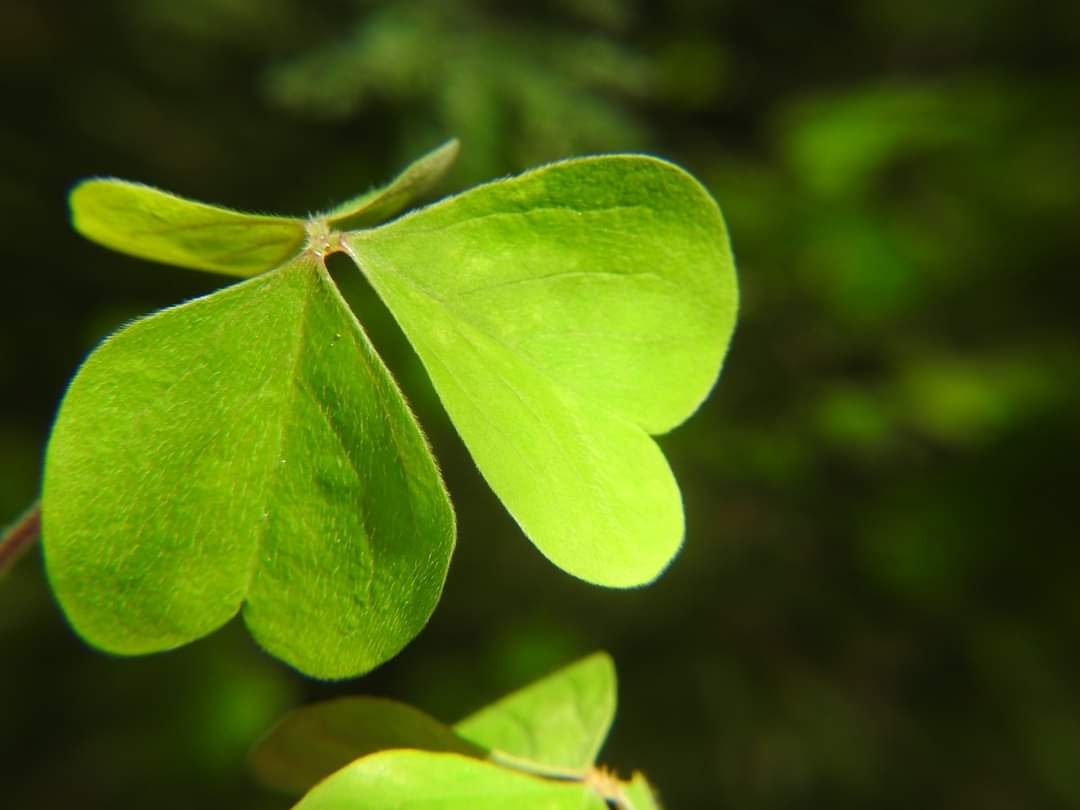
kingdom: Plantae
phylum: Tracheophyta
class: Magnoliopsida
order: Oxalidales
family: Oxalidaceae
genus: Oxalis
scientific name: Oxalis linarantha
